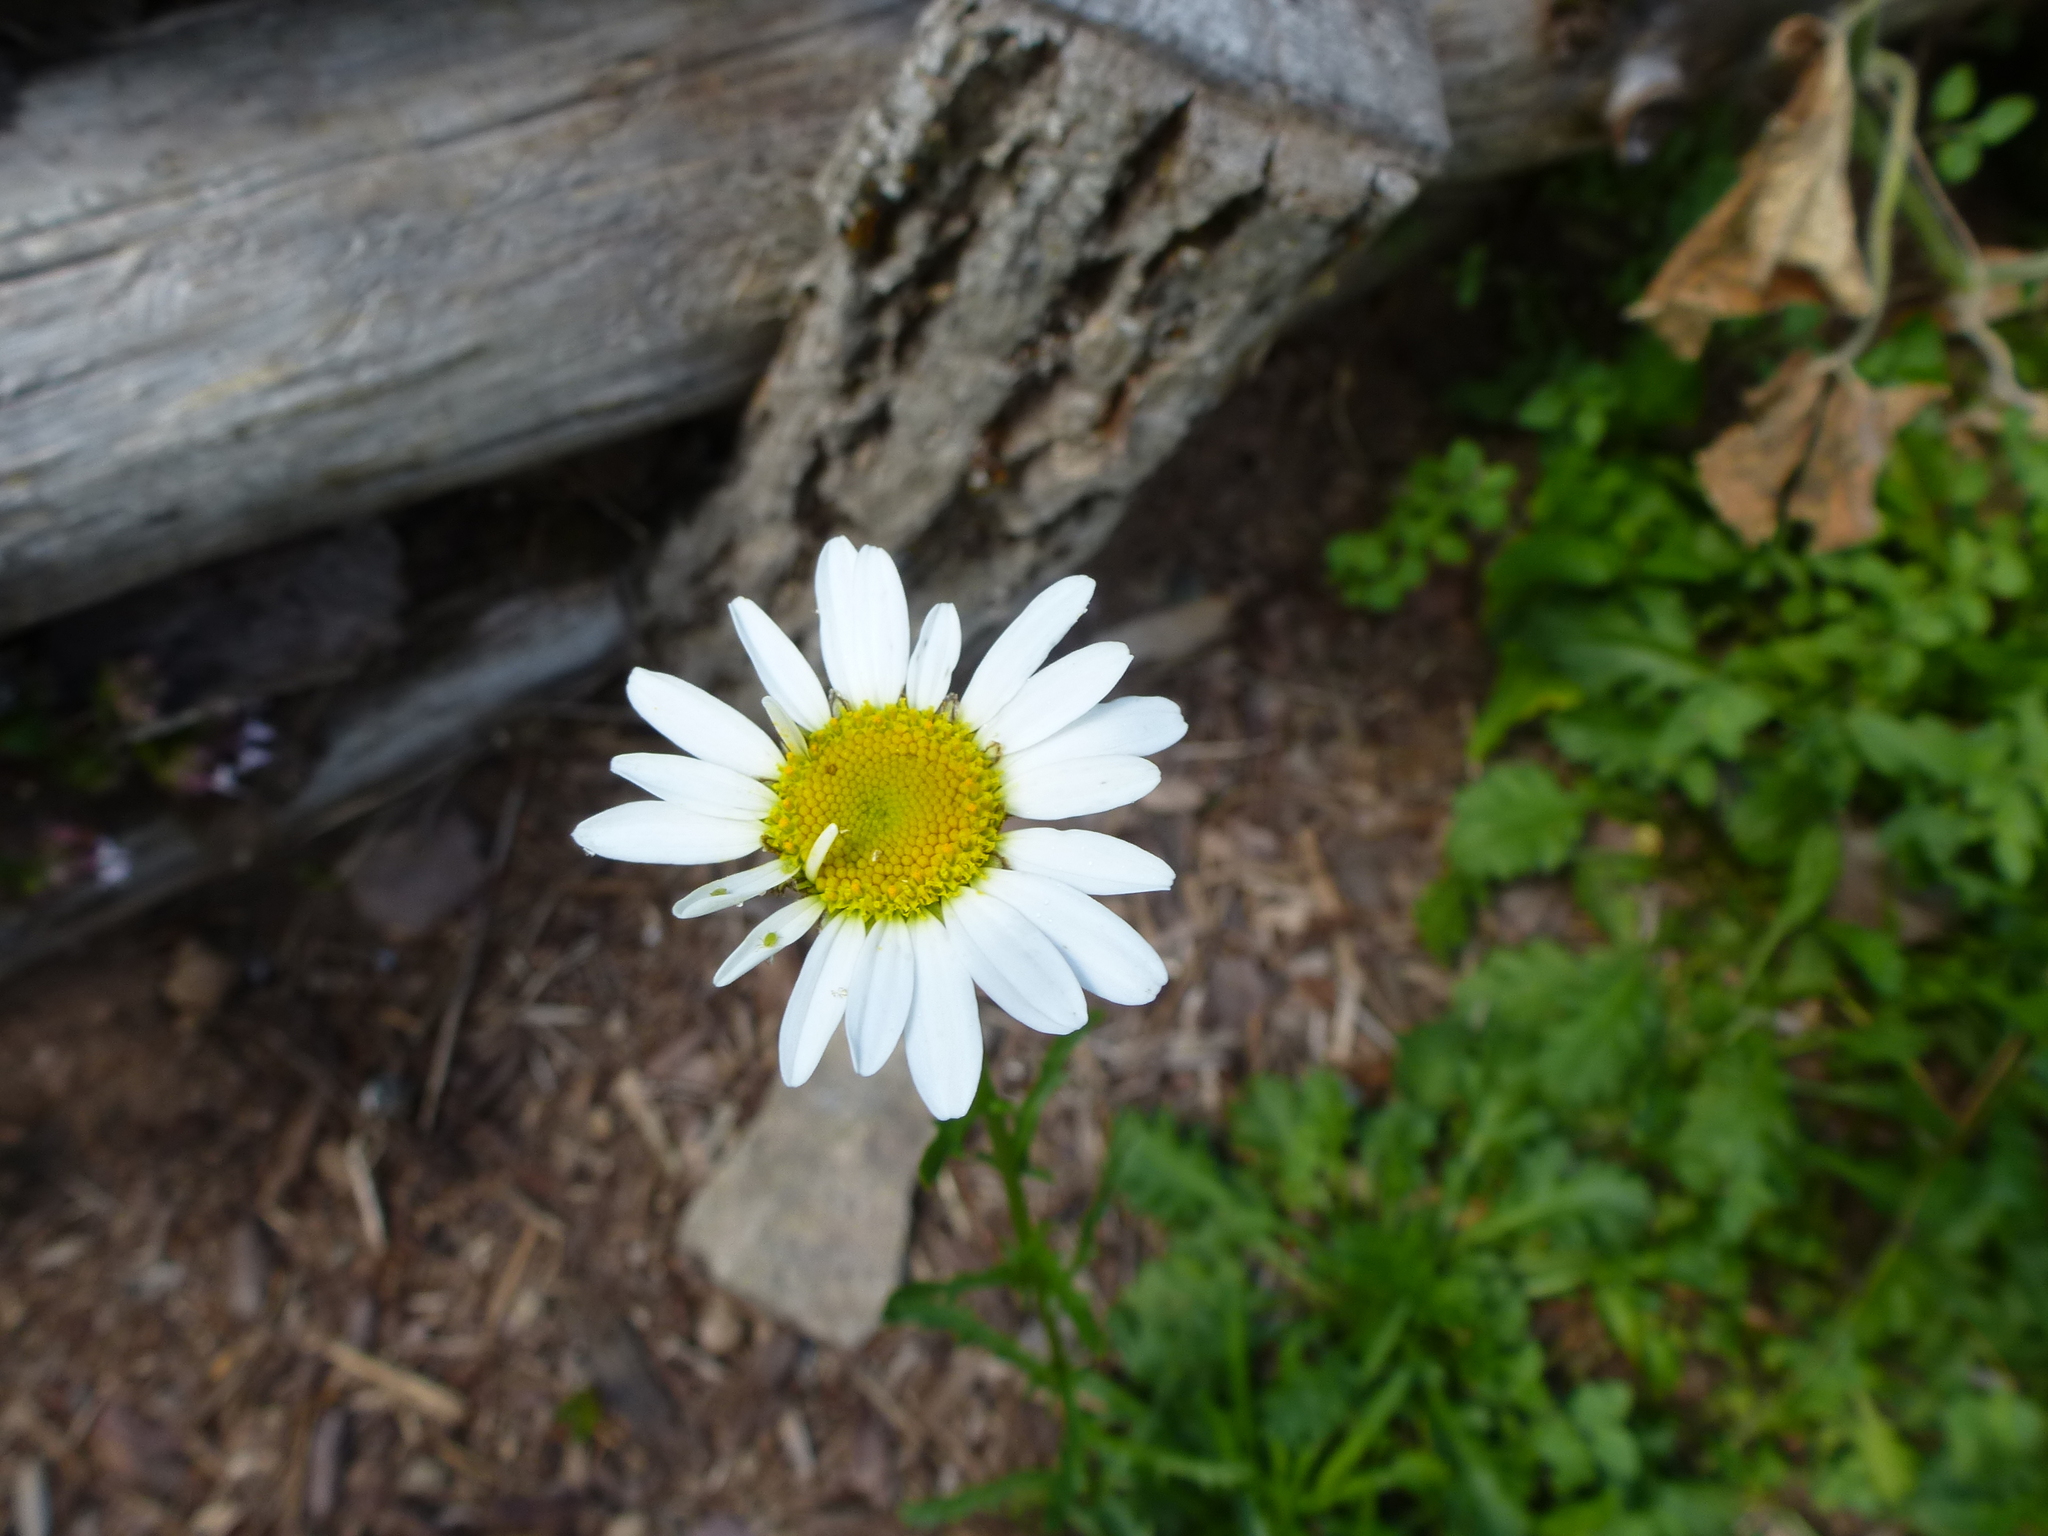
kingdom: Plantae
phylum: Tracheophyta
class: Magnoliopsida
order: Asterales
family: Asteraceae
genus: Leucanthemum
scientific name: Leucanthemum vulgare
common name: Oxeye daisy
